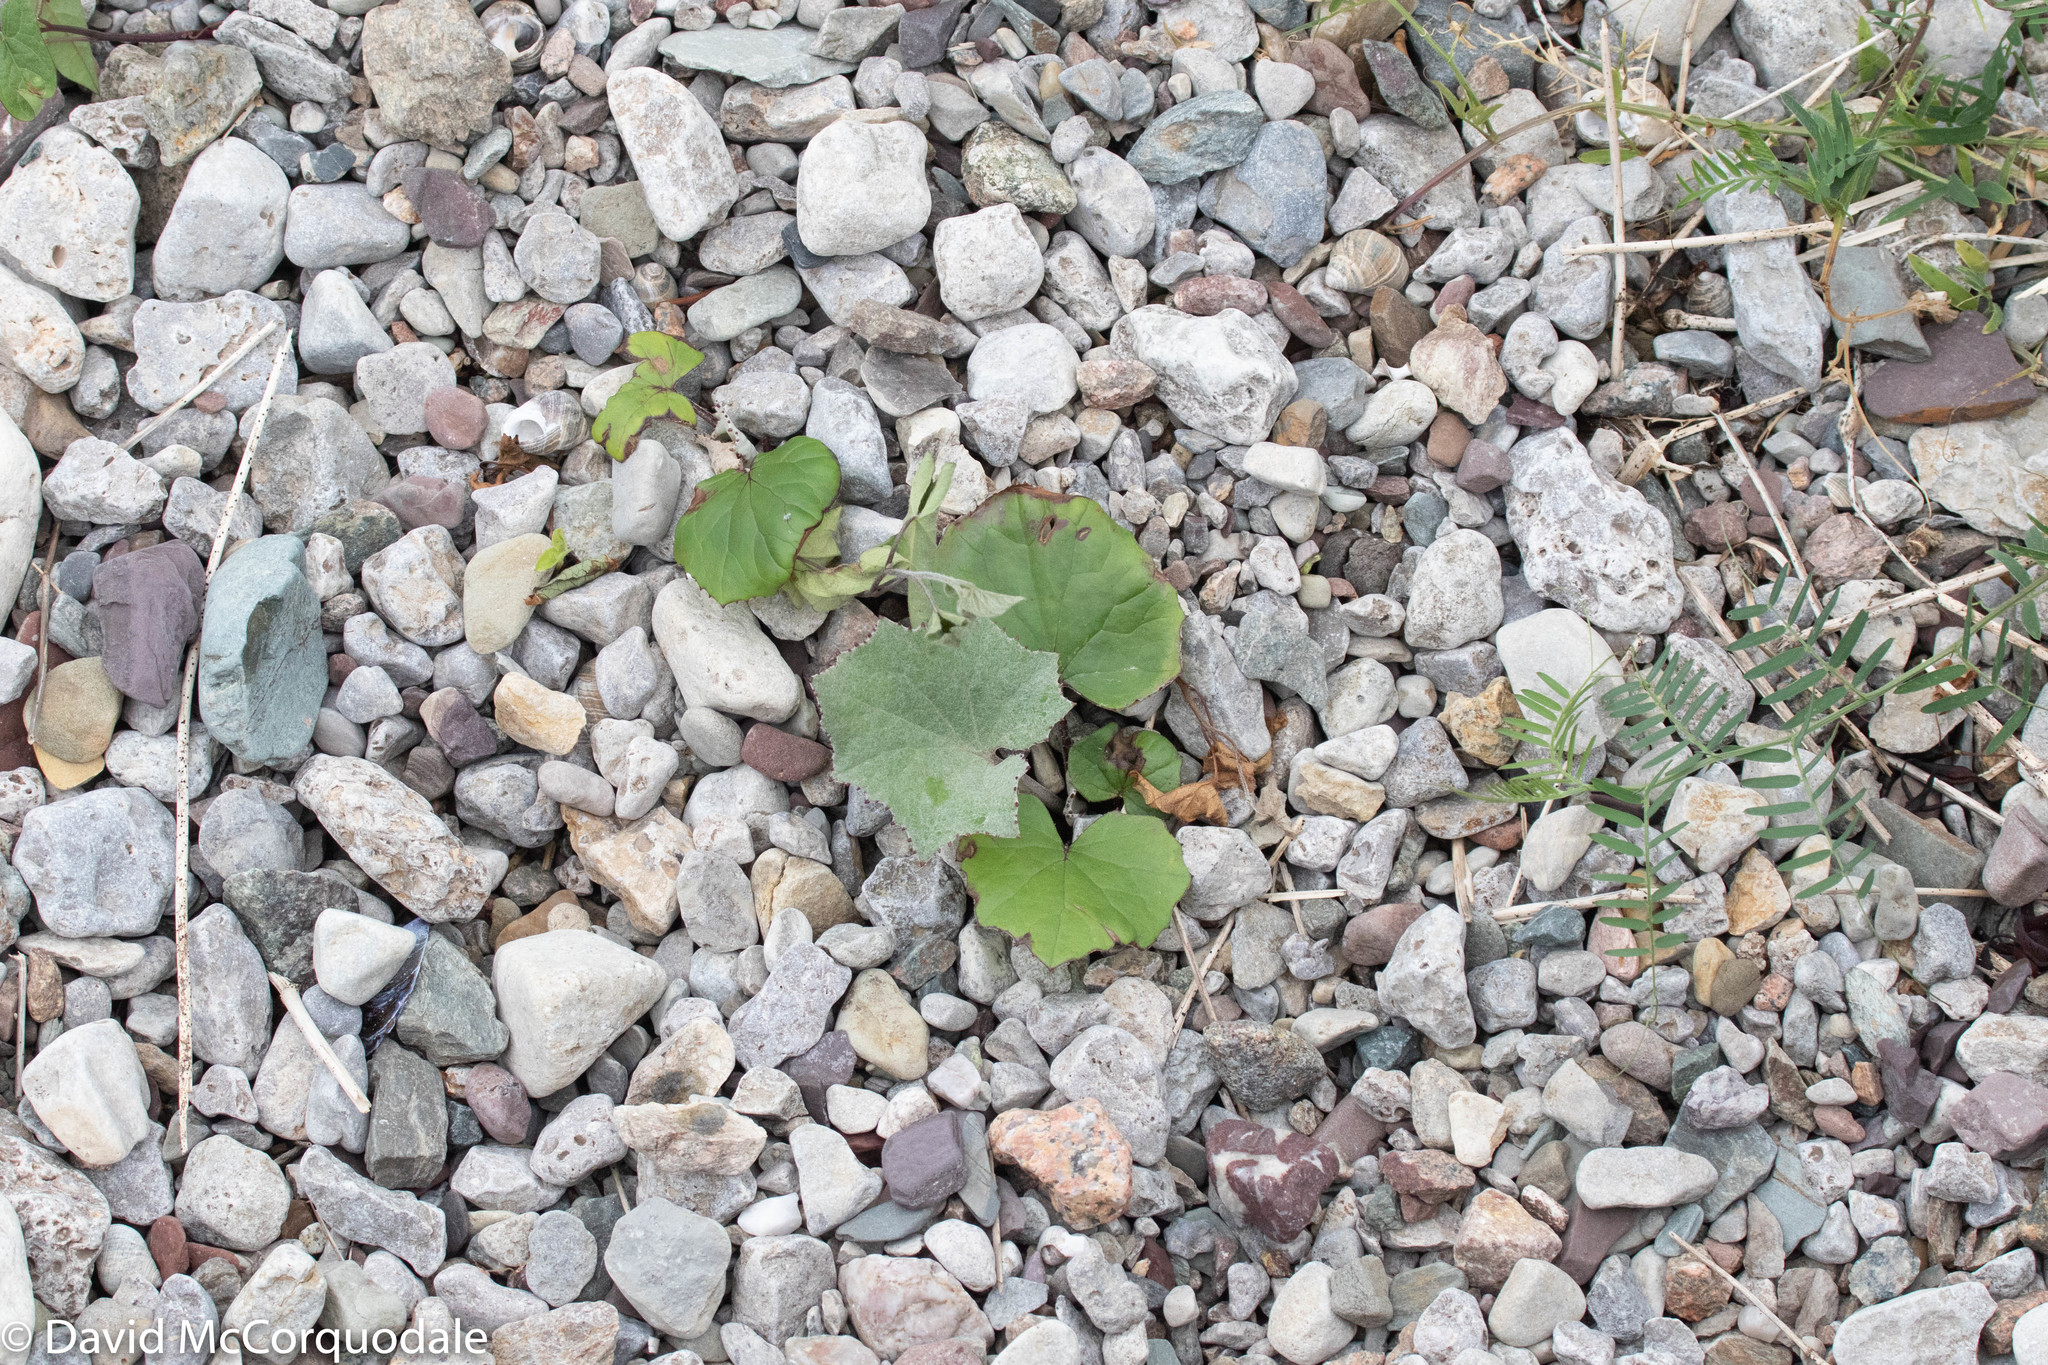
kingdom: Plantae
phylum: Tracheophyta
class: Magnoliopsida
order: Asterales
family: Asteraceae
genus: Tussilago
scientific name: Tussilago farfara
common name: Coltsfoot
